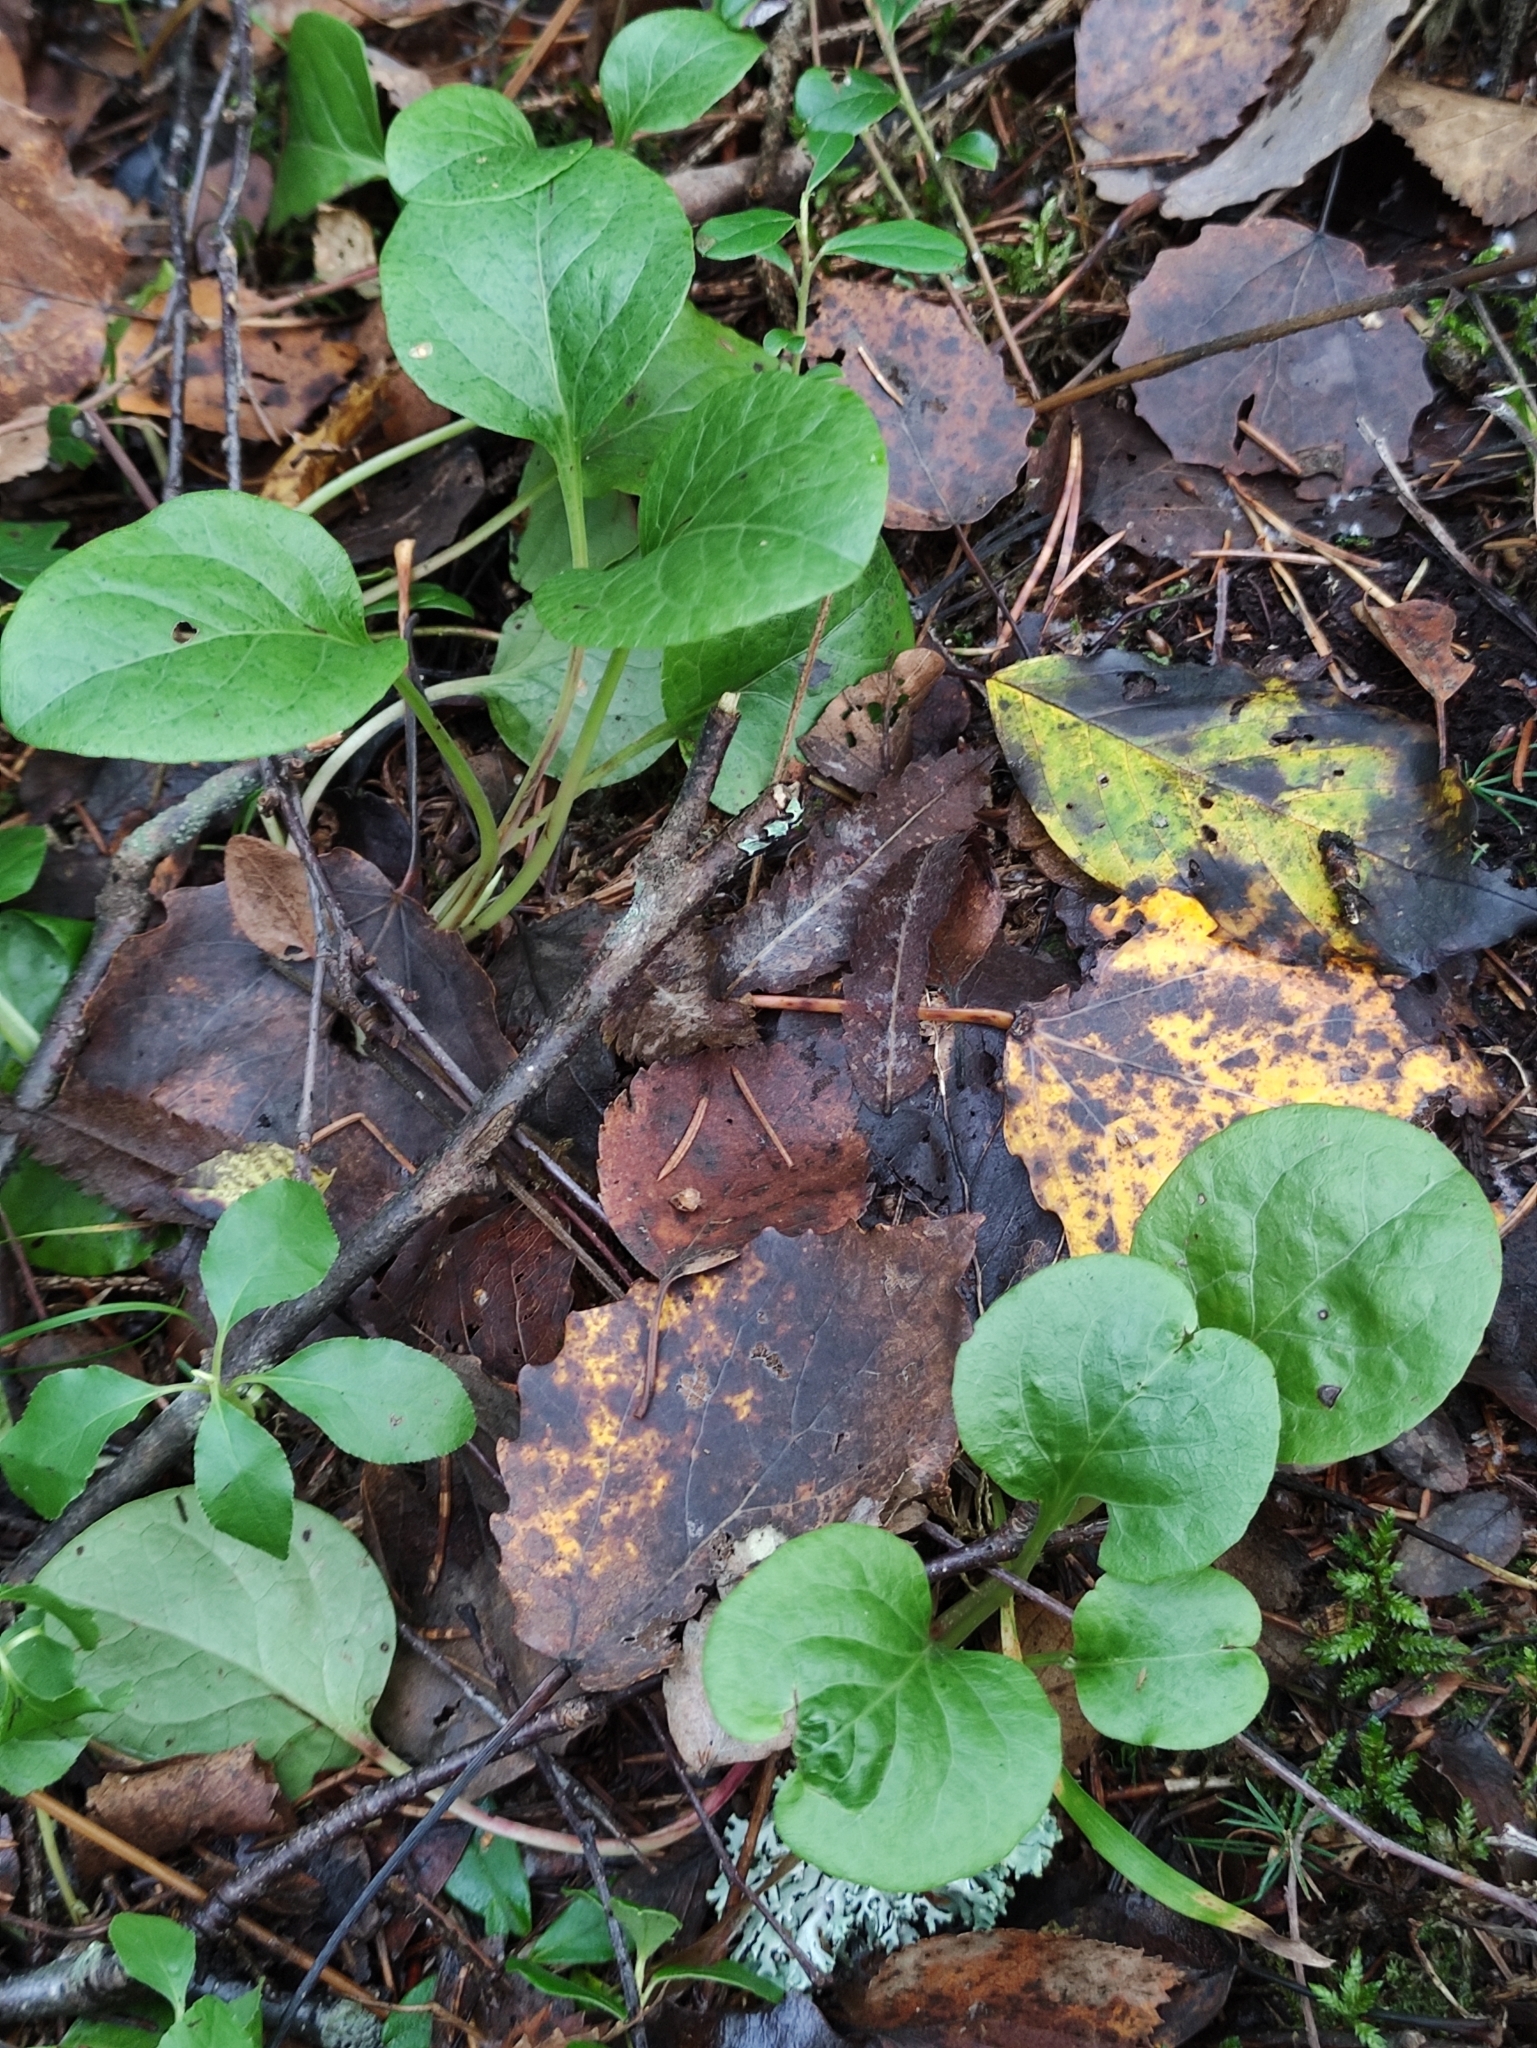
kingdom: Plantae
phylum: Tracheophyta
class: Magnoliopsida
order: Ericales
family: Ericaceae
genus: Pyrola
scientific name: Pyrola rotundifolia
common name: Round-leaved wintergreen
